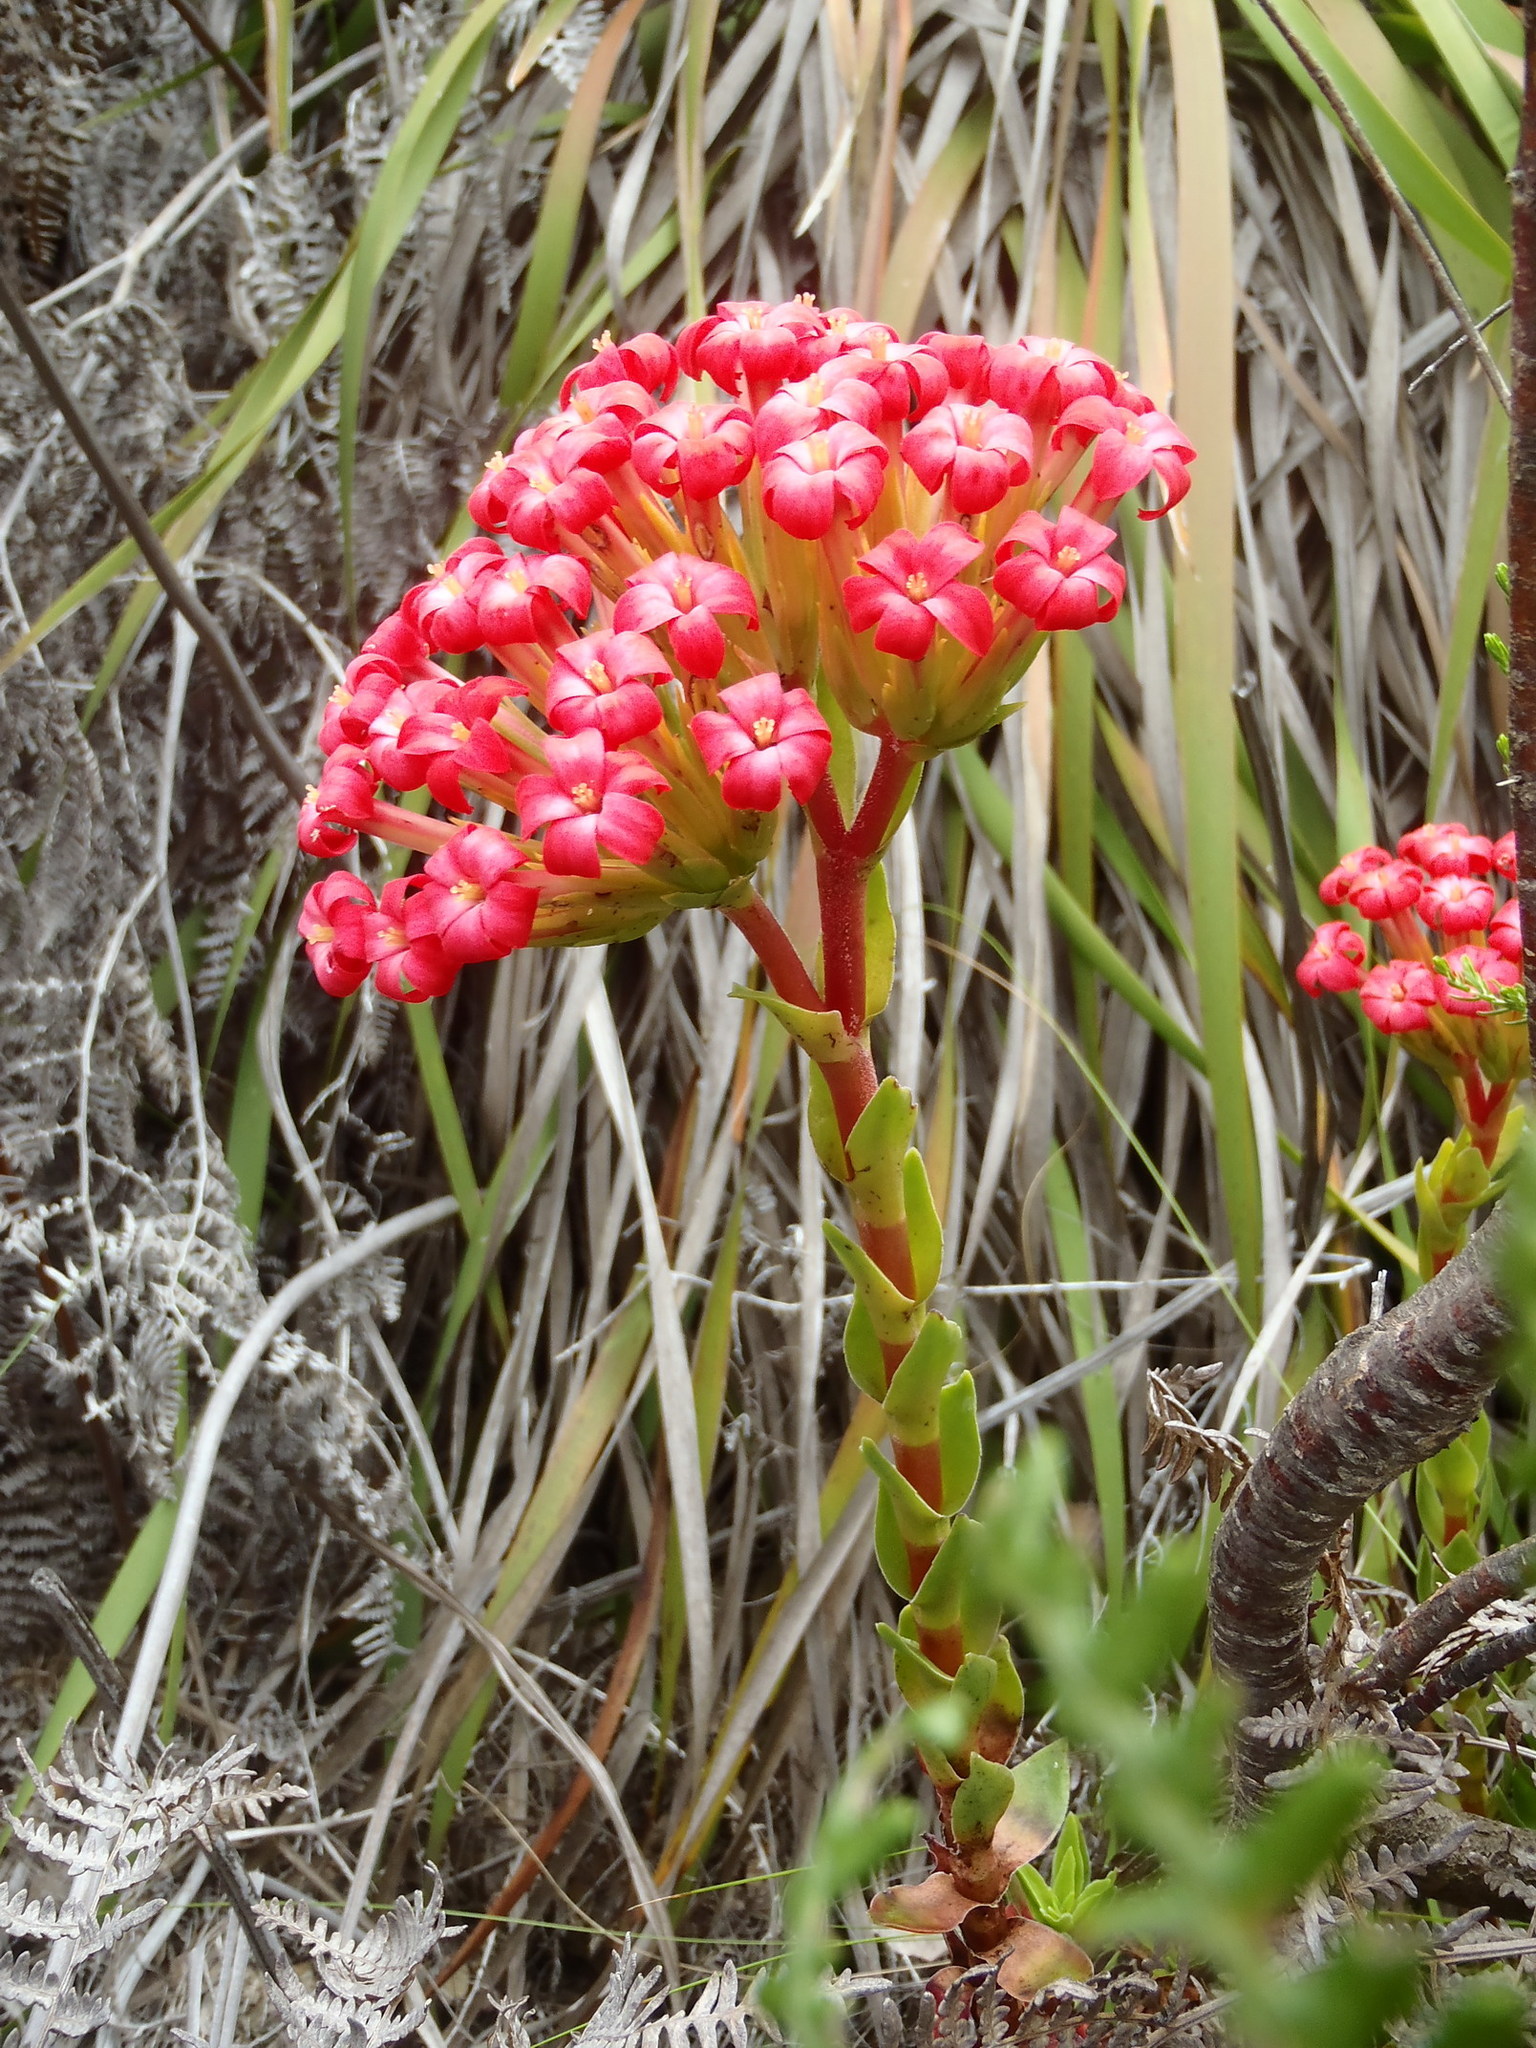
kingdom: Plantae
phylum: Tracheophyta
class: Magnoliopsida
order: Saxifragales
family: Crassulaceae
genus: Crassula
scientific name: Crassula coccinea
